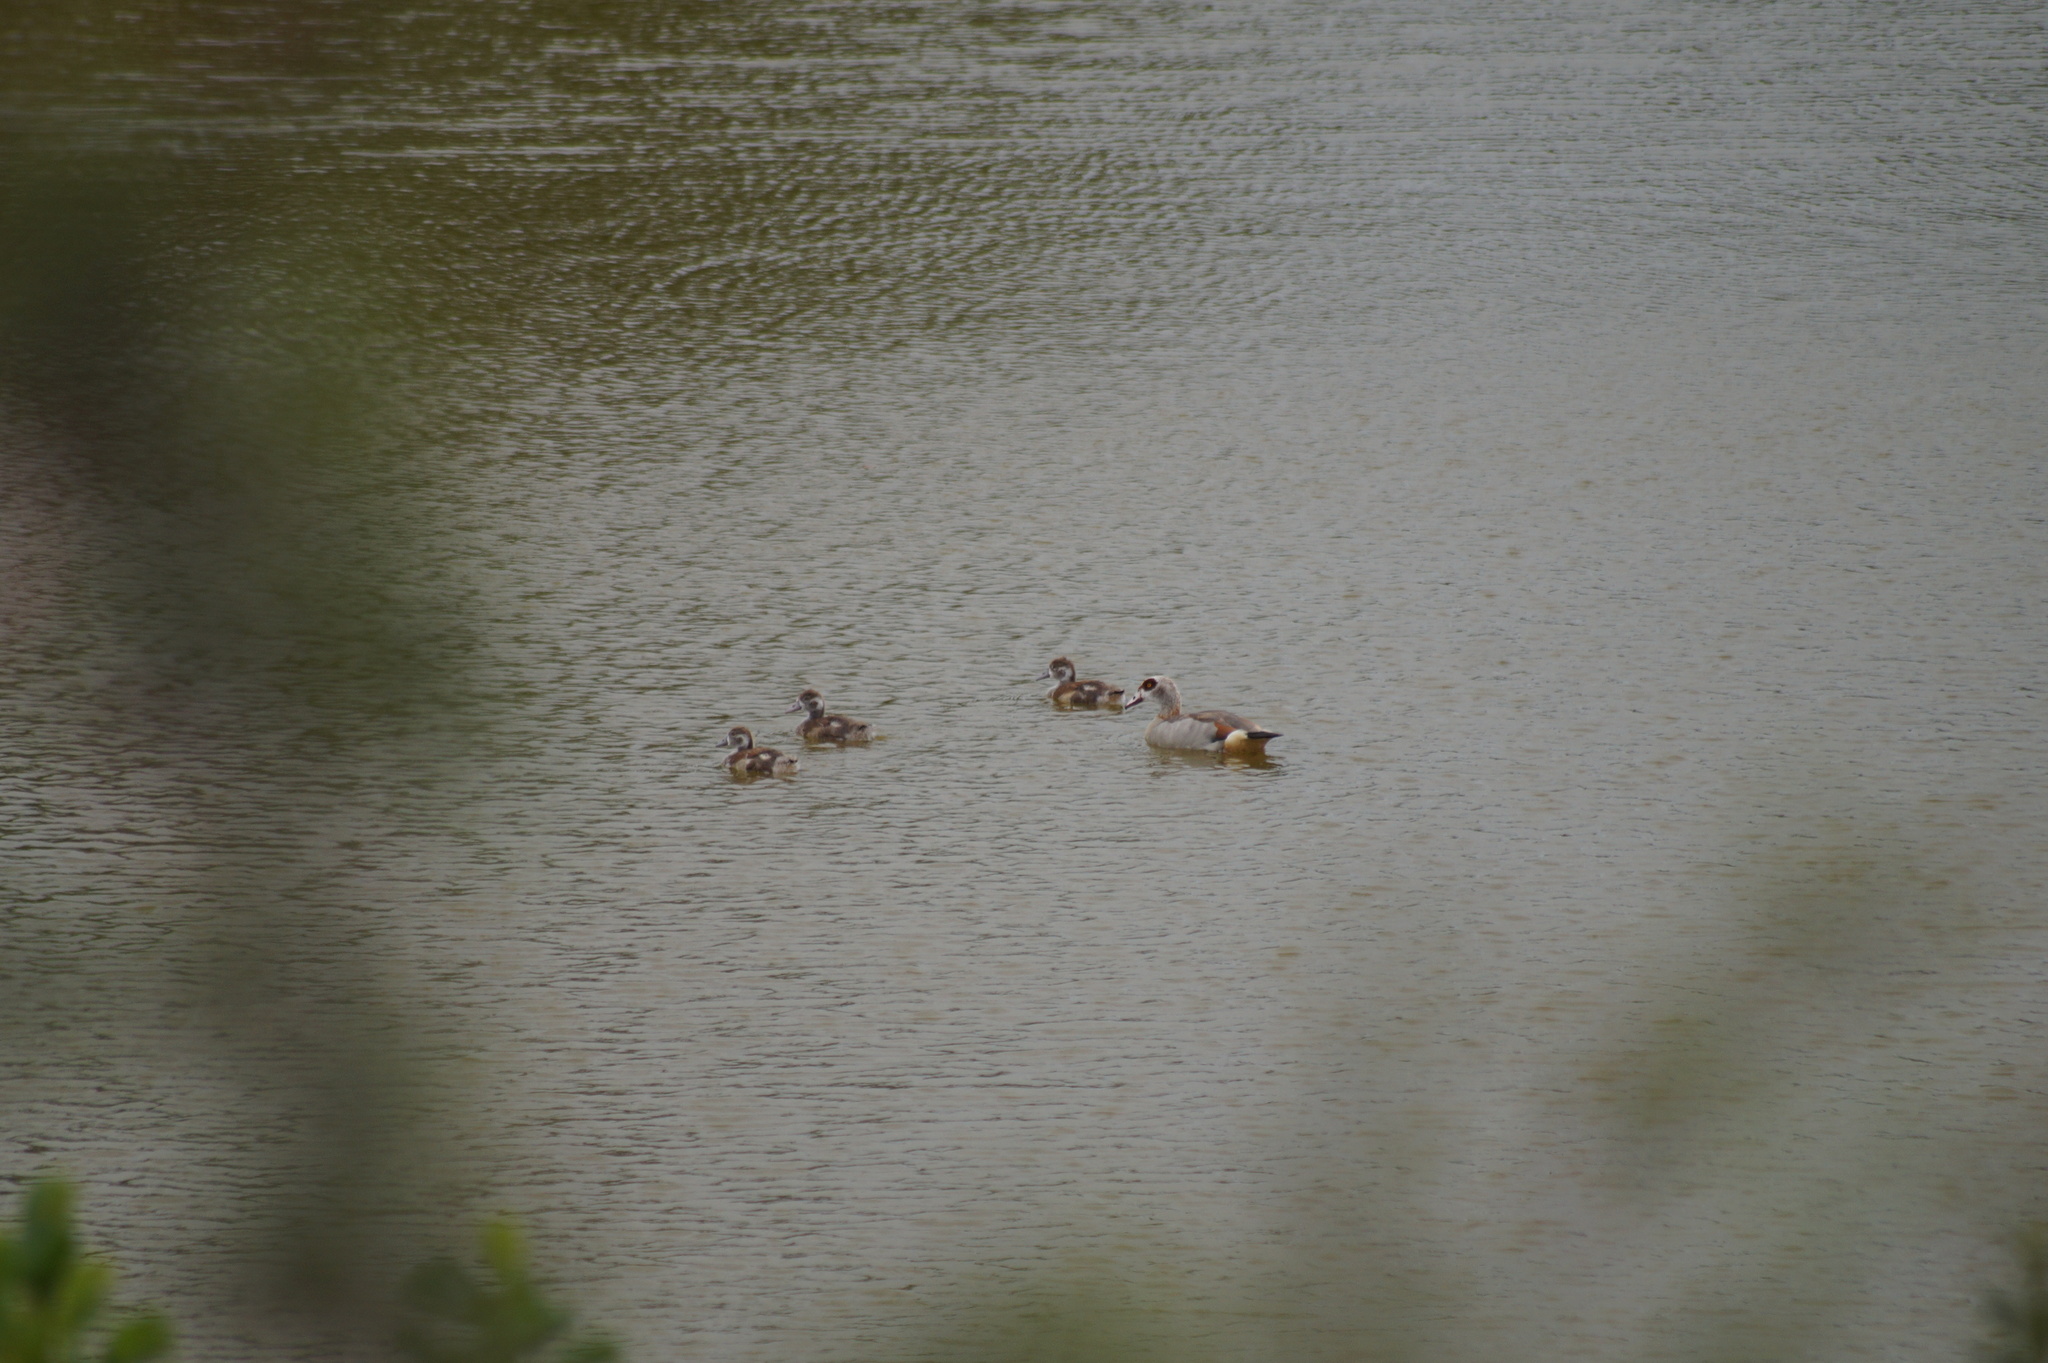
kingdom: Animalia
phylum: Chordata
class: Aves
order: Anseriformes
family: Anatidae
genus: Alopochen
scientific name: Alopochen aegyptiaca
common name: Egyptian goose
